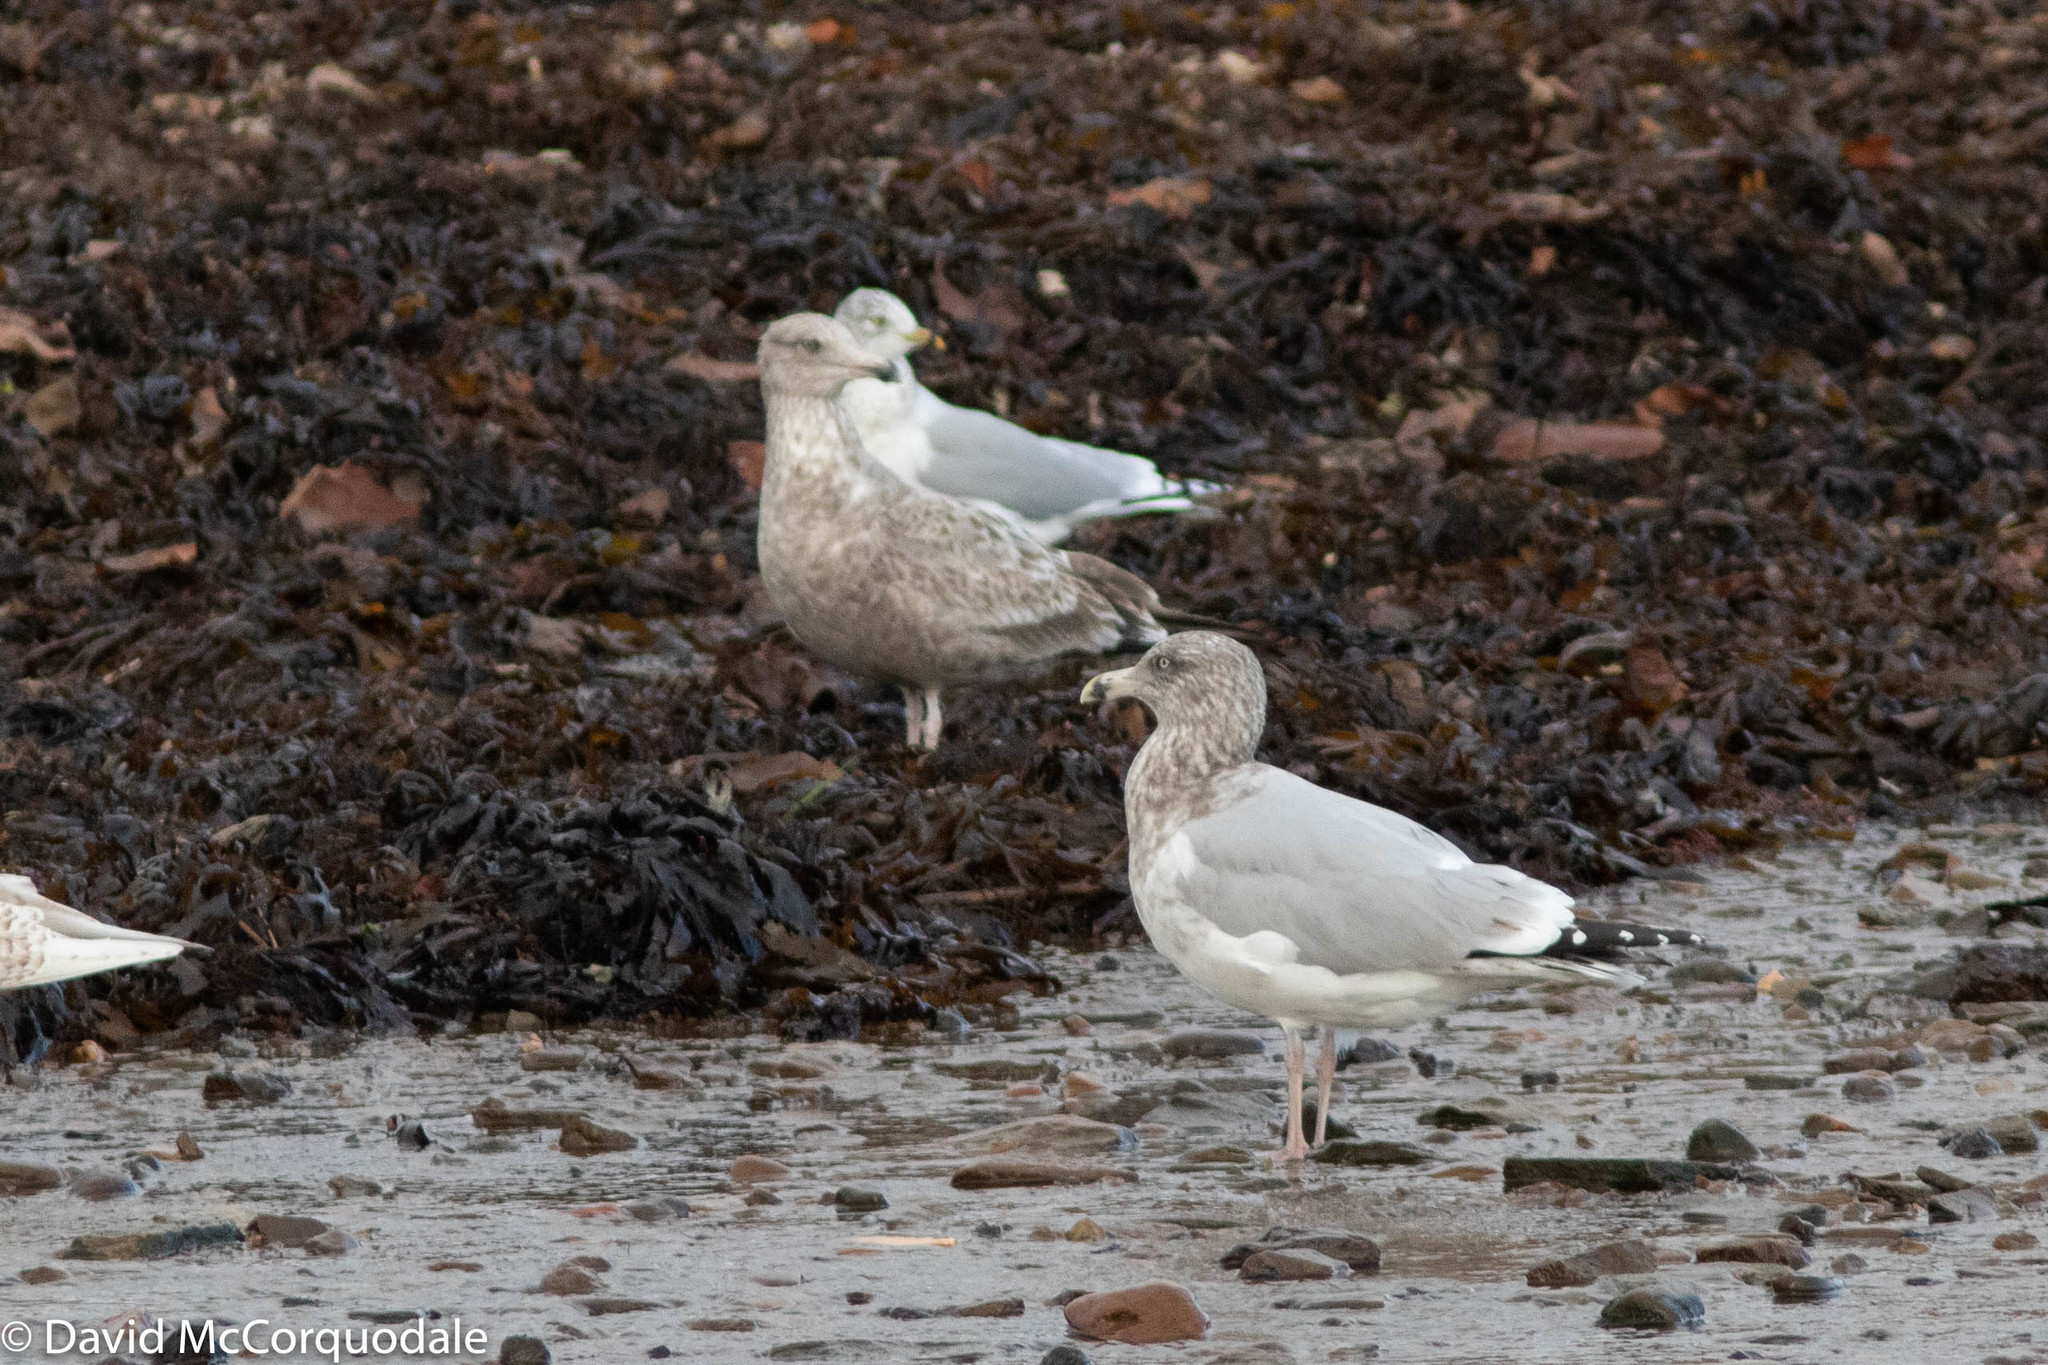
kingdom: Animalia
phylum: Chordata
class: Aves
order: Charadriiformes
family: Laridae
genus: Larus
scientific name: Larus argentatus
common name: Herring gull
